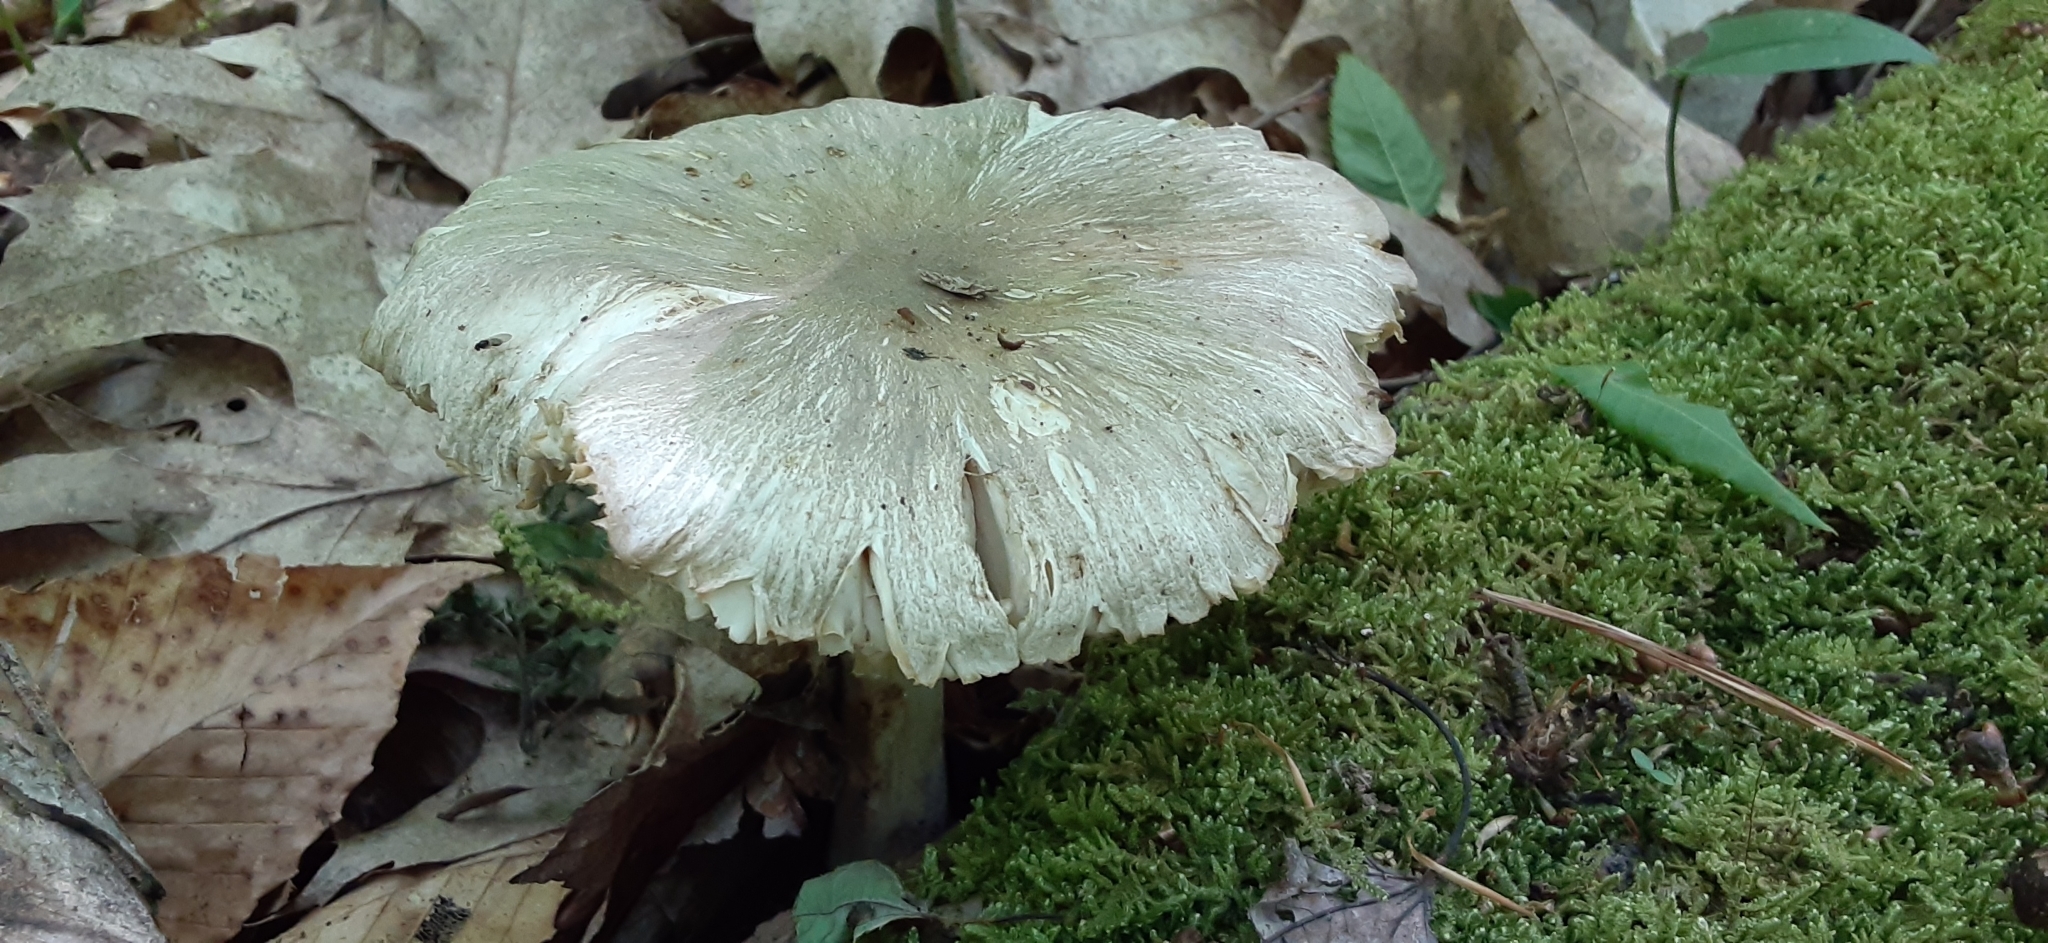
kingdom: Fungi
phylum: Basidiomycota
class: Agaricomycetes
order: Agaricales
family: Tricholomataceae
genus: Megacollybia
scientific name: Megacollybia rodmanii
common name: Eastern american platterful mushroom
